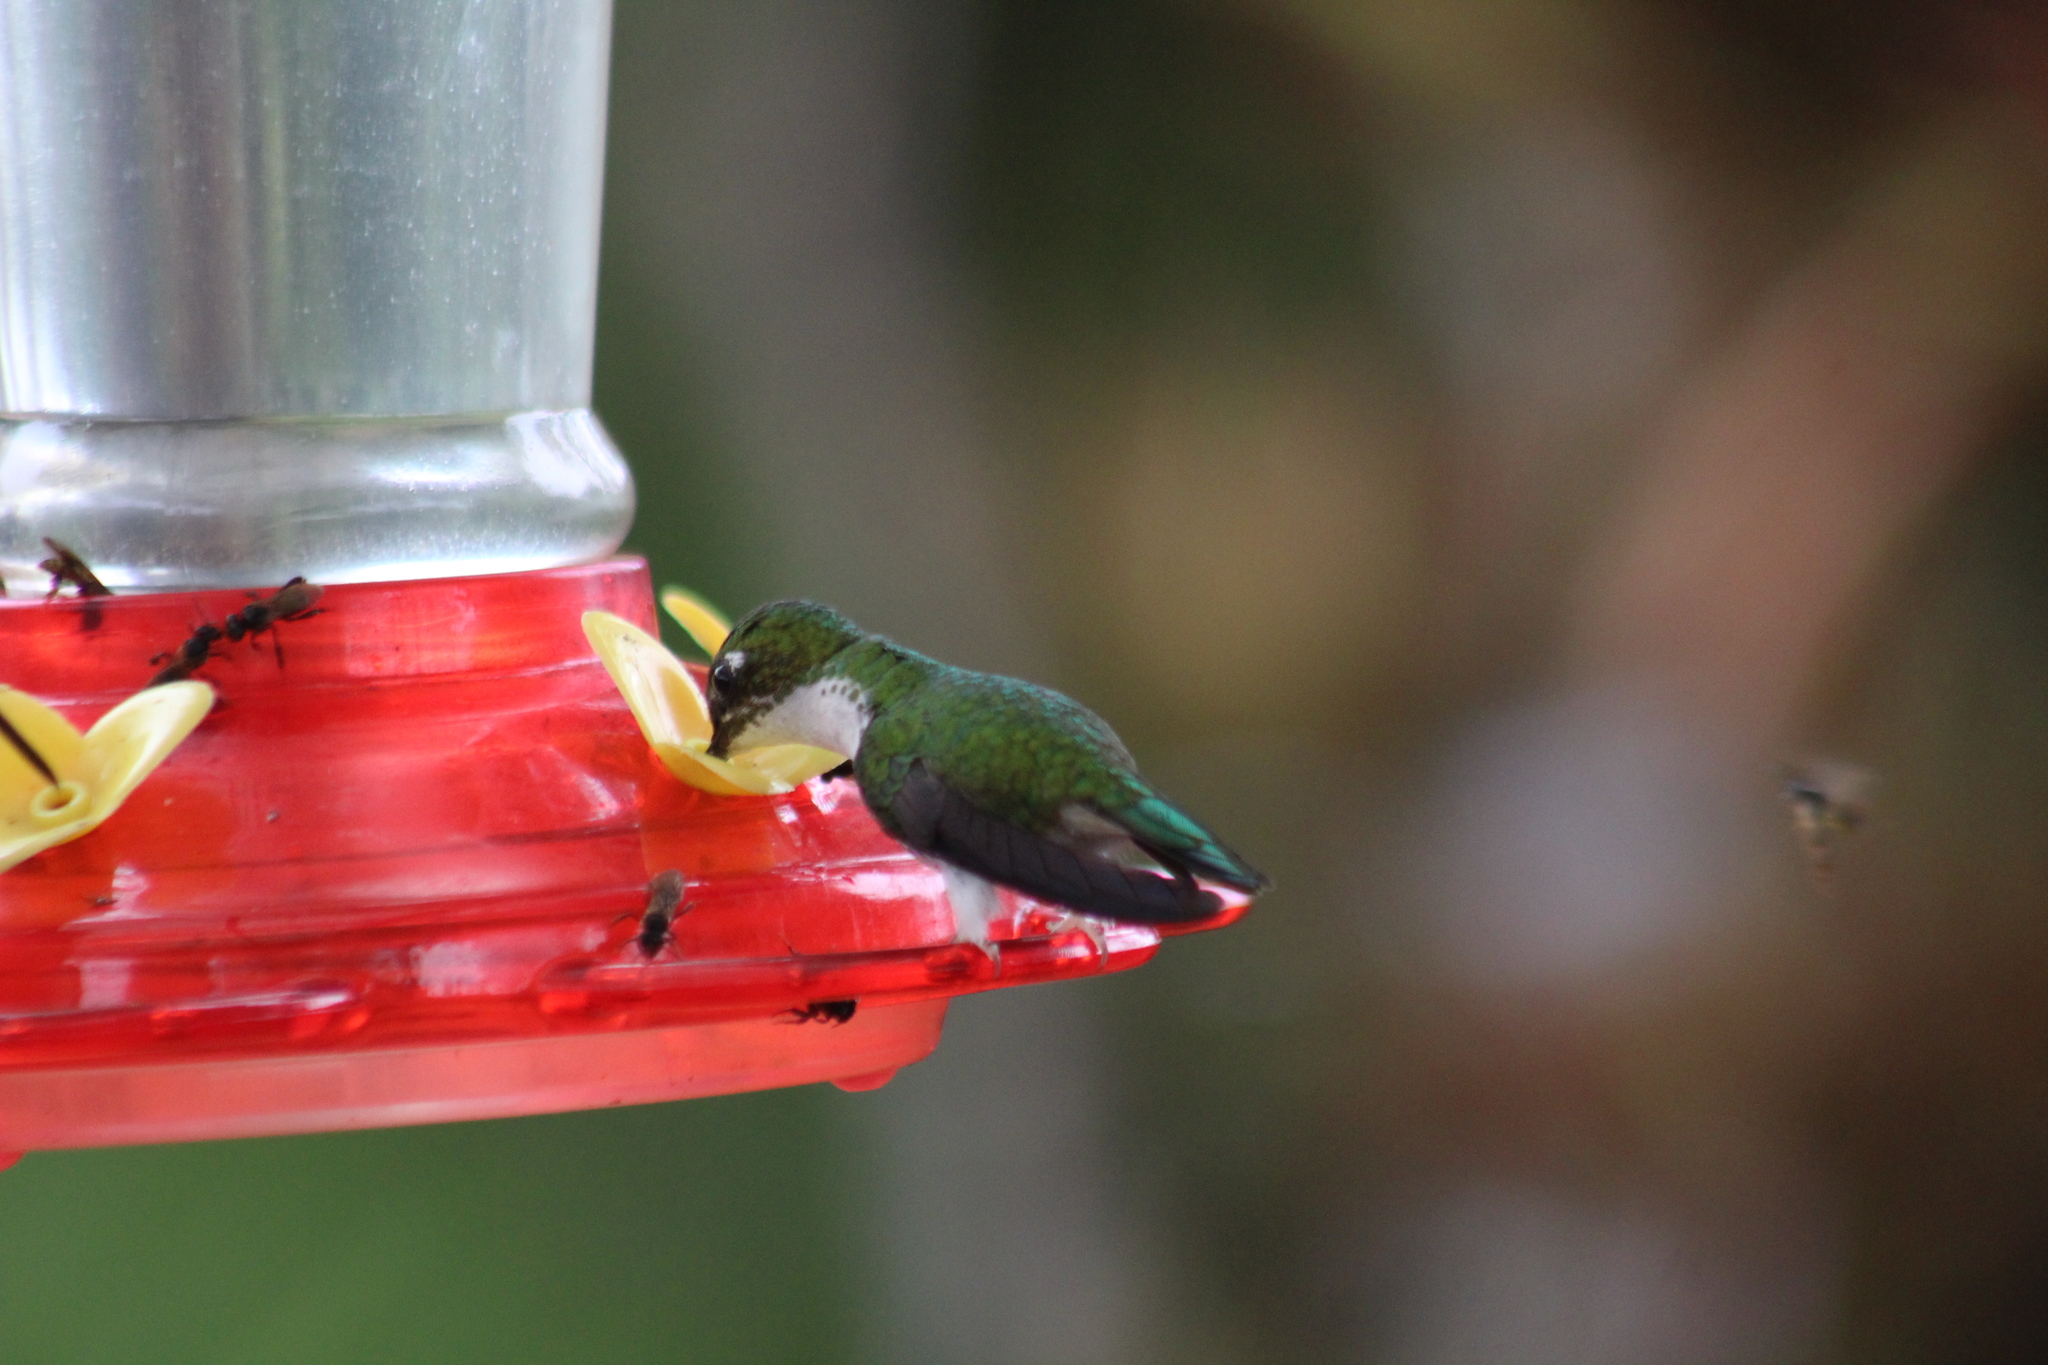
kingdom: Animalia
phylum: Chordata
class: Aves
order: Apodiformes
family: Trochilidae
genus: Ocreatus
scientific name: Ocreatus underwoodii
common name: Booted racket-tail
